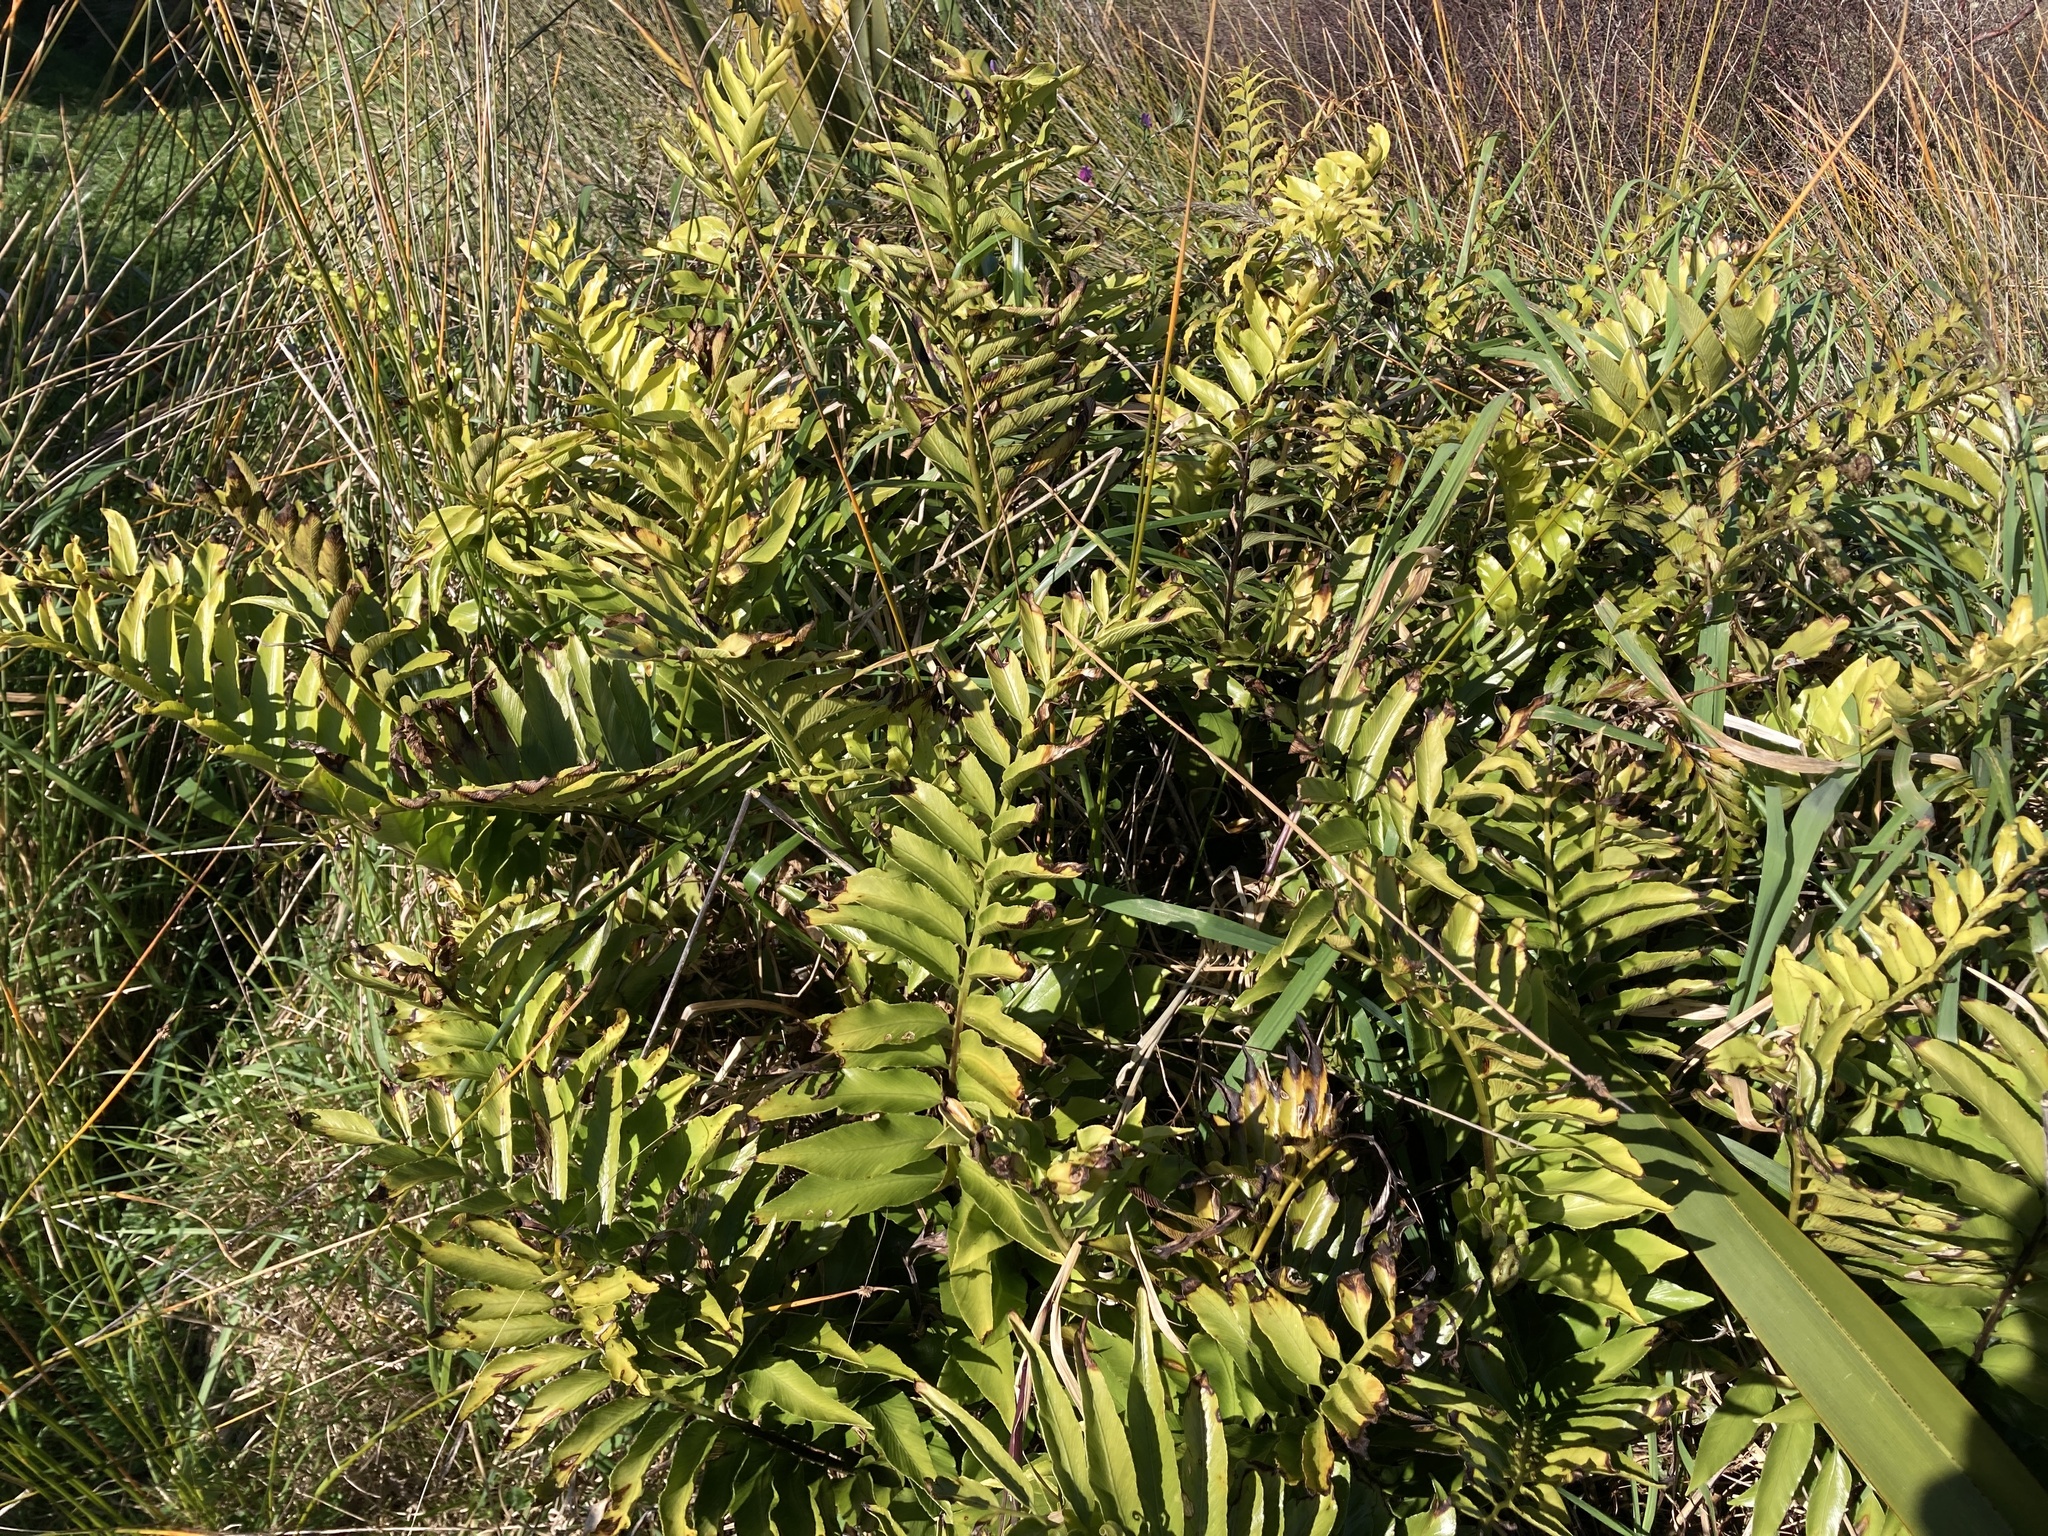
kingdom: Plantae
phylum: Tracheophyta
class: Polypodiopsida
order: Polypodiales
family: Aspleniaceae
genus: Asplenium
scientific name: Asplenium oblongifolium
